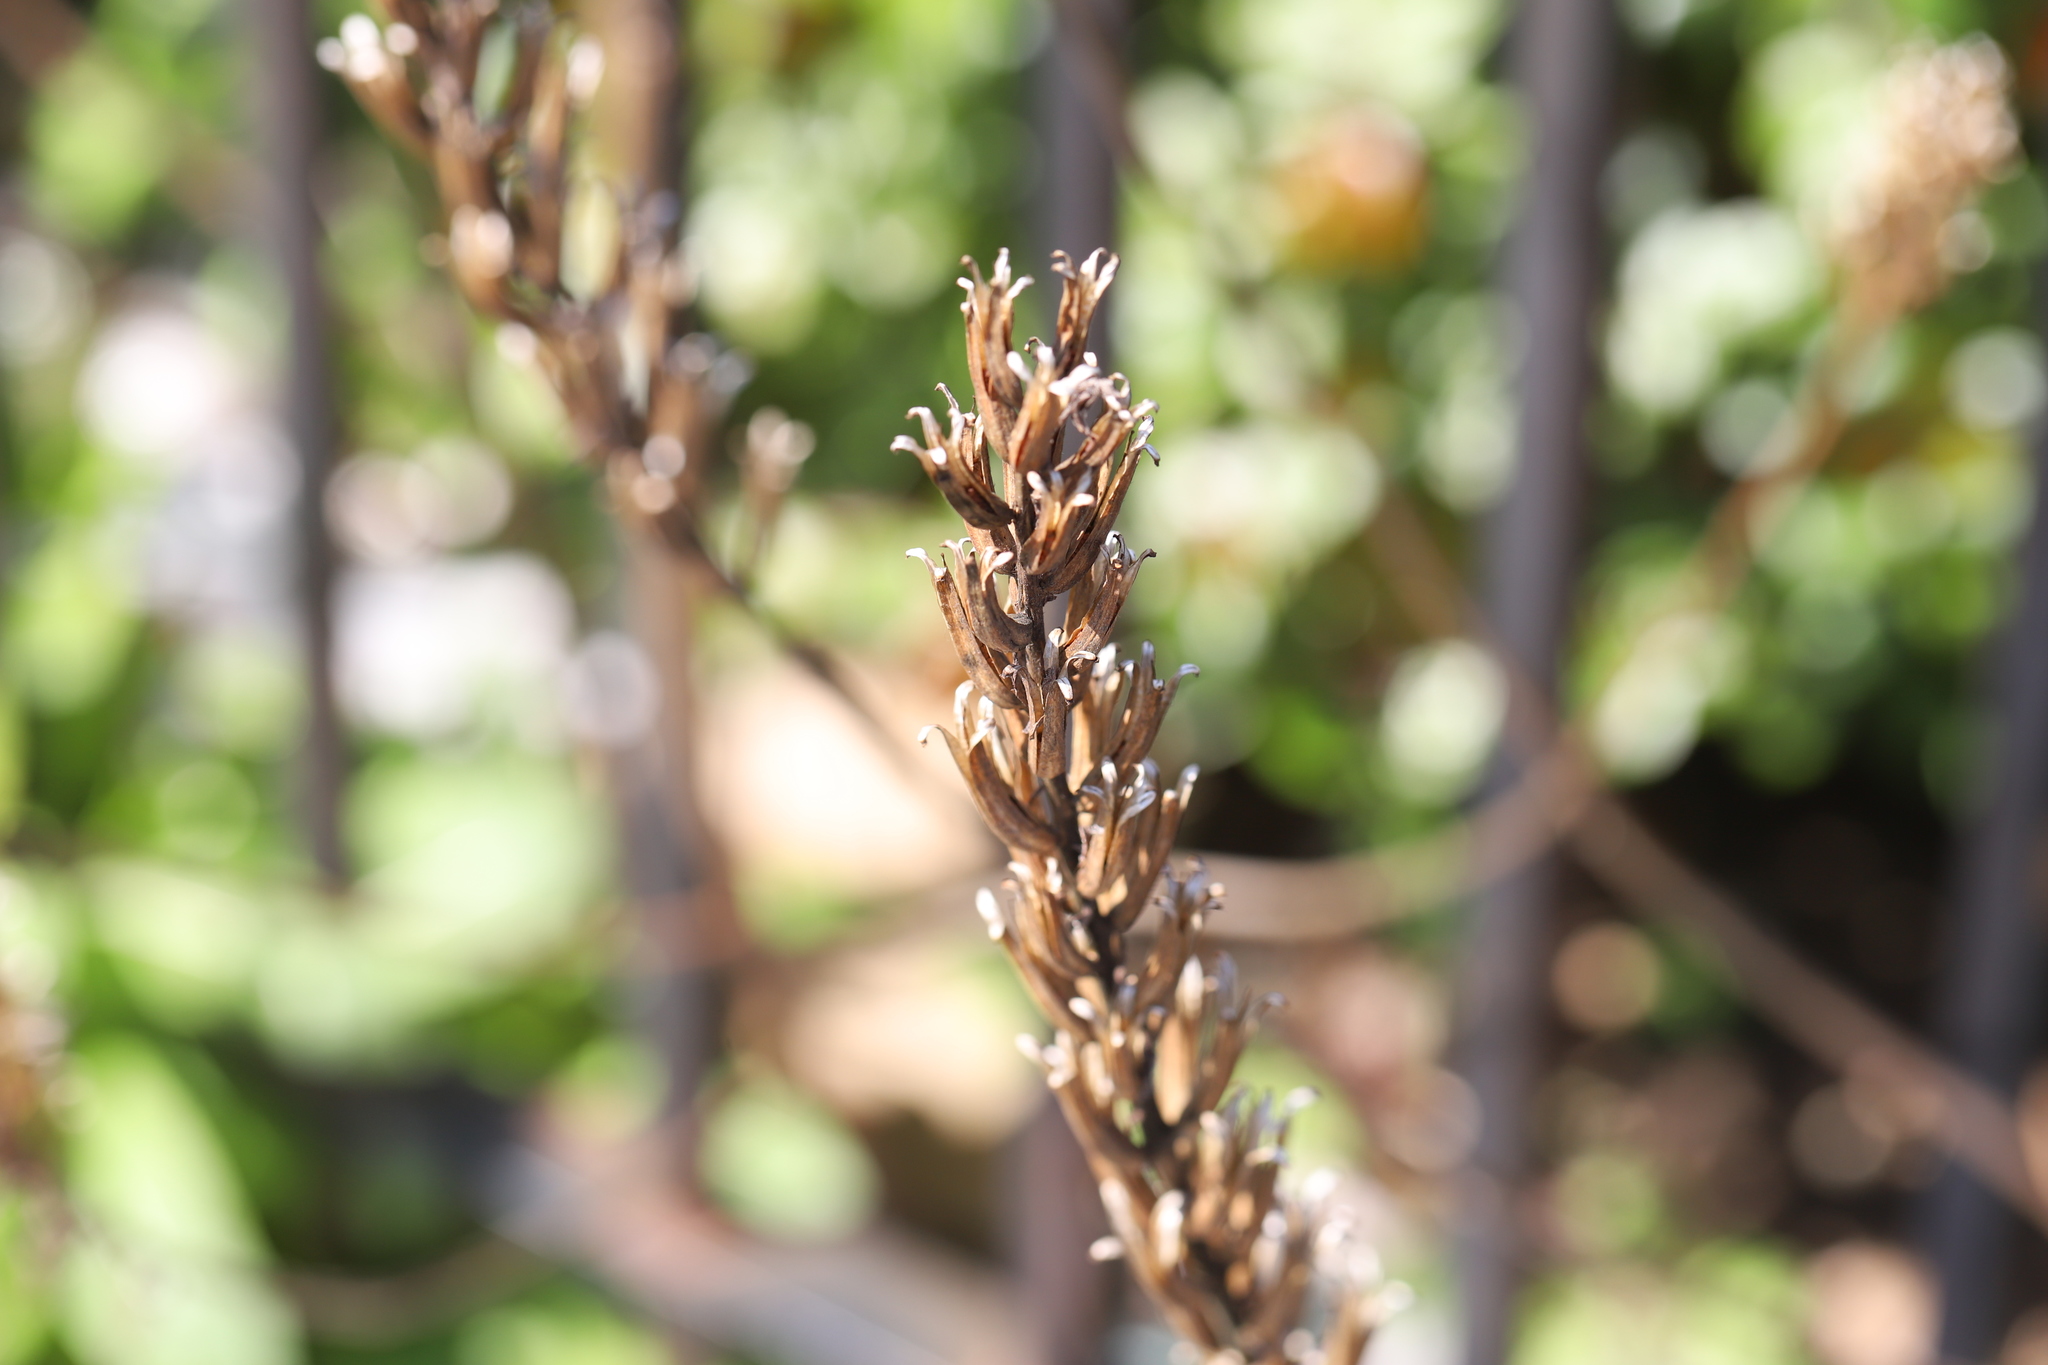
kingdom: Plantae
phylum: Tracheophyta
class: Magnoliopsida
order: Myrtales
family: Onagraceae
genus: Oenothera
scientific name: Oenothera biennis
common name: Common evening-primrose
